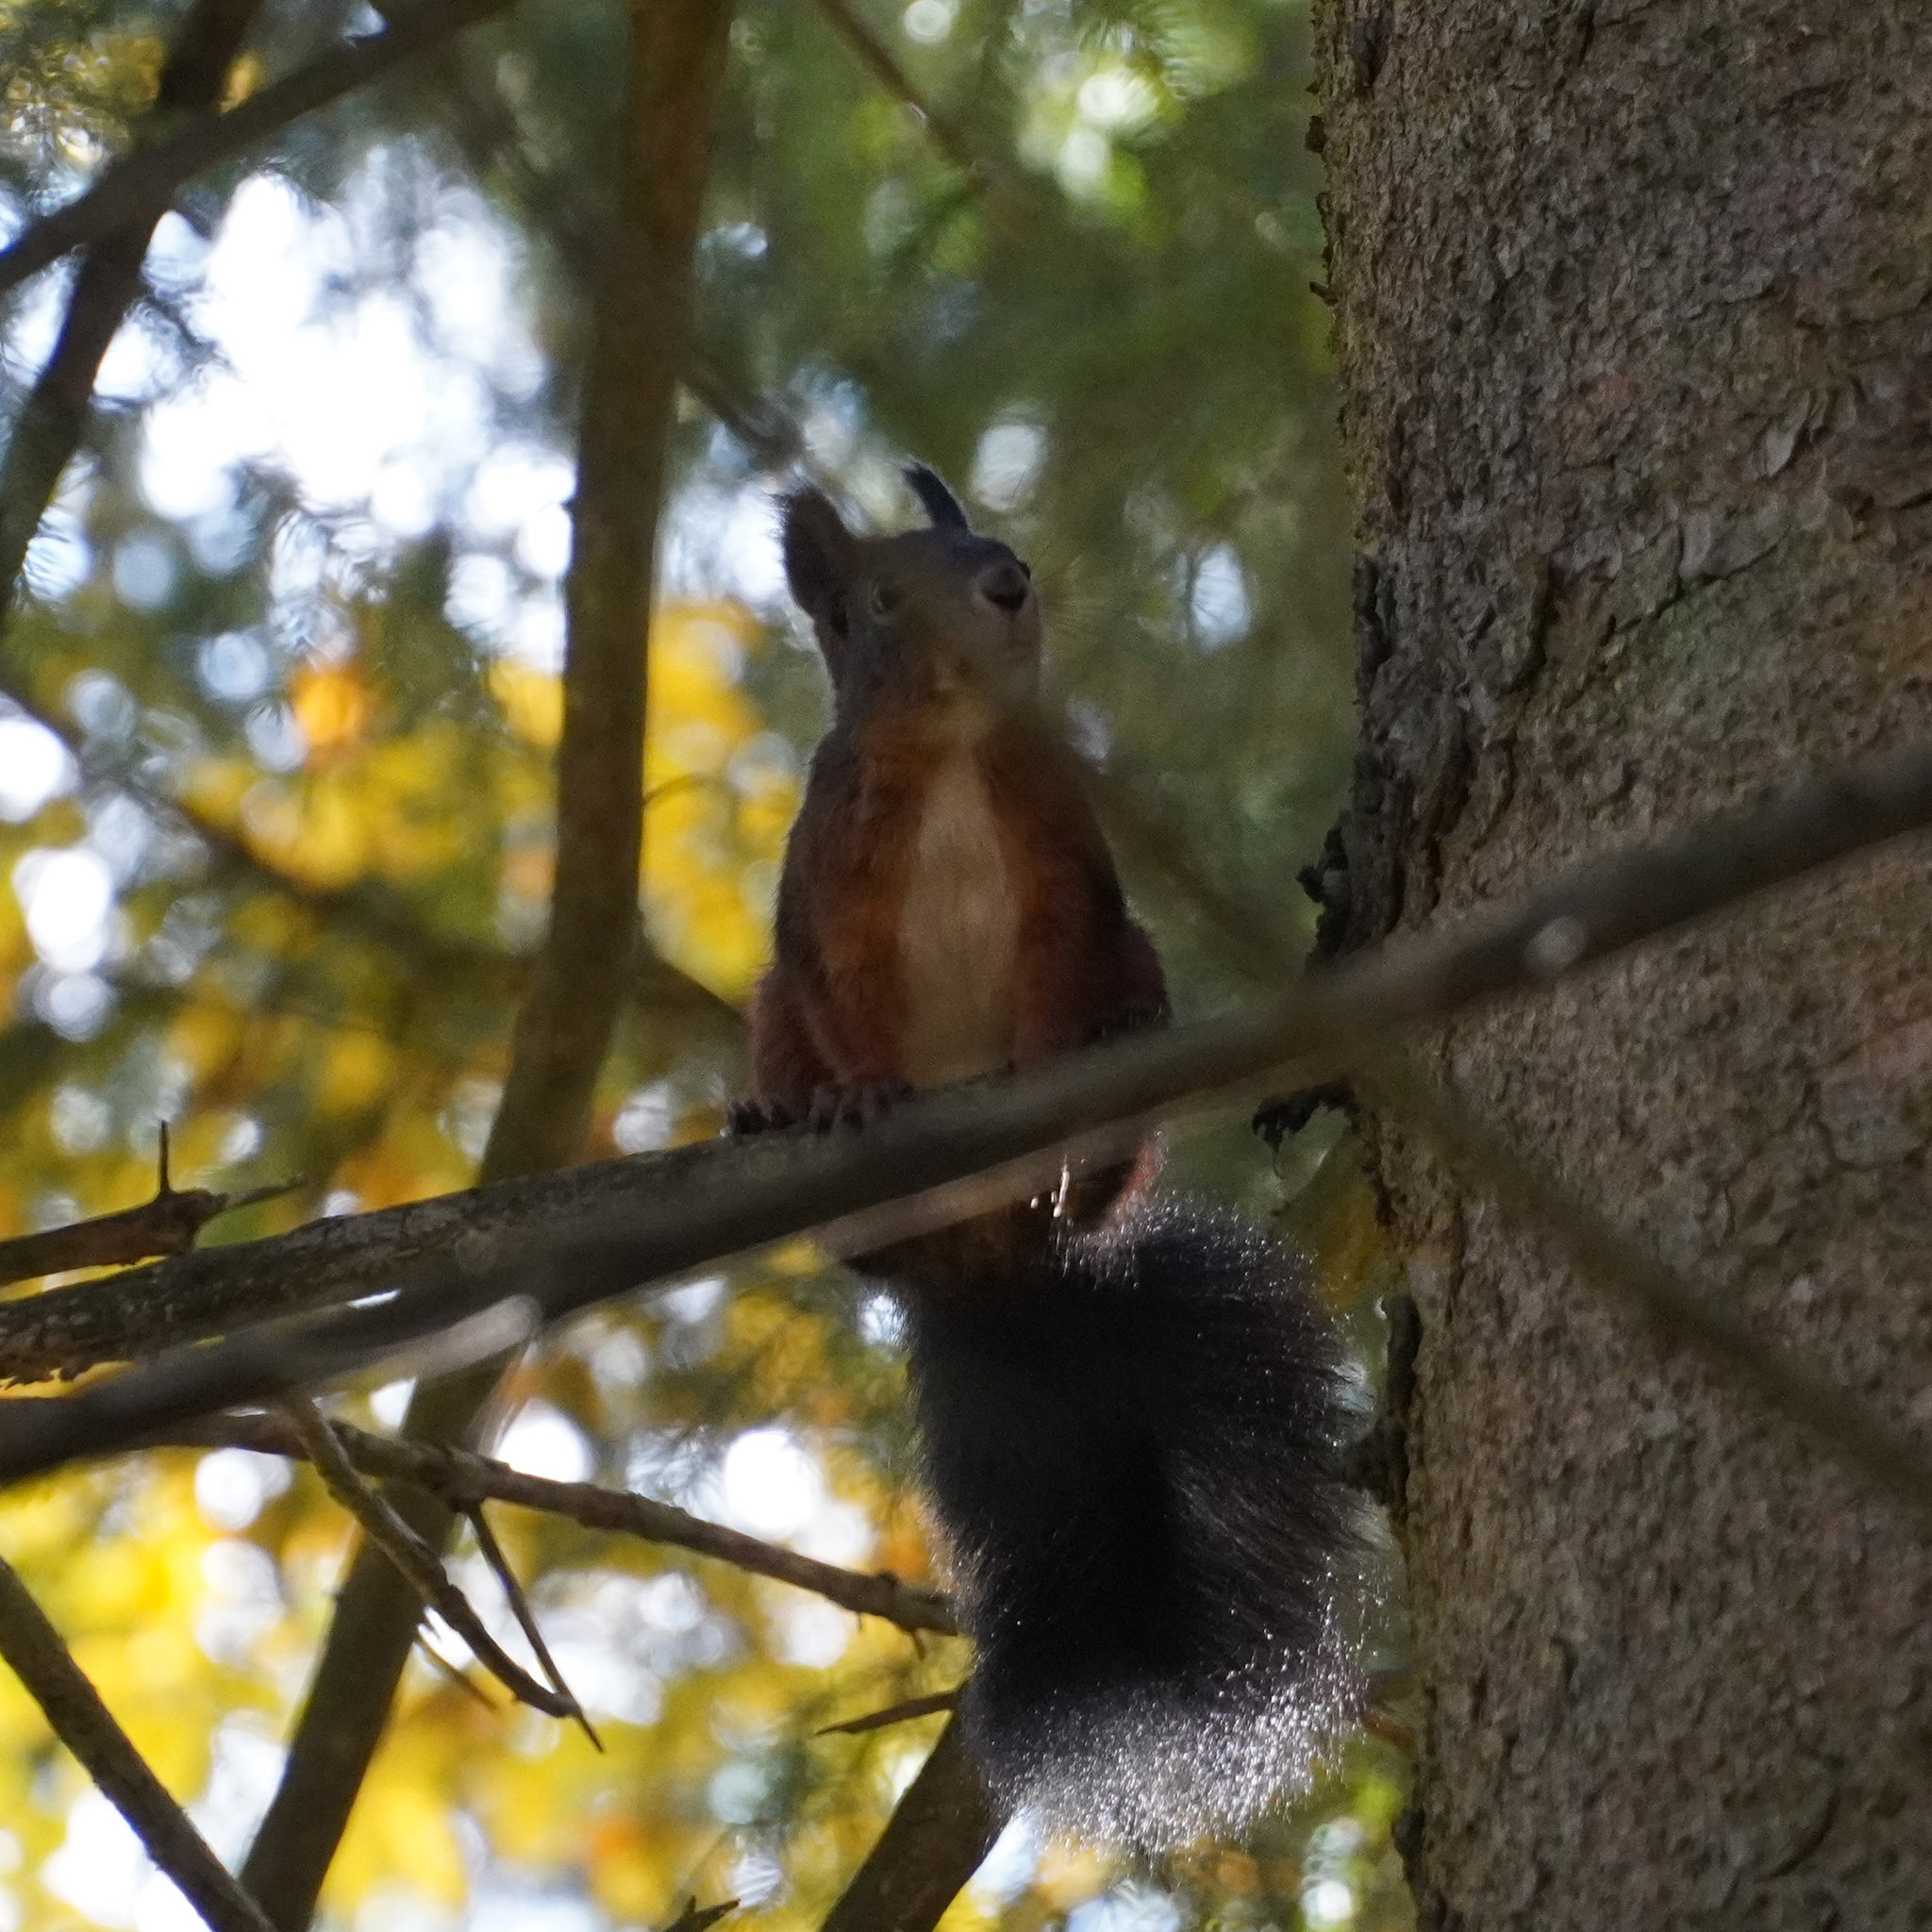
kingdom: Animalia
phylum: Chordata
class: Mammalia
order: Rodentia
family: Sciuridae
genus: Sciurus
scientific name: Sciurus vulgaris
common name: Eurasian red squirrel
